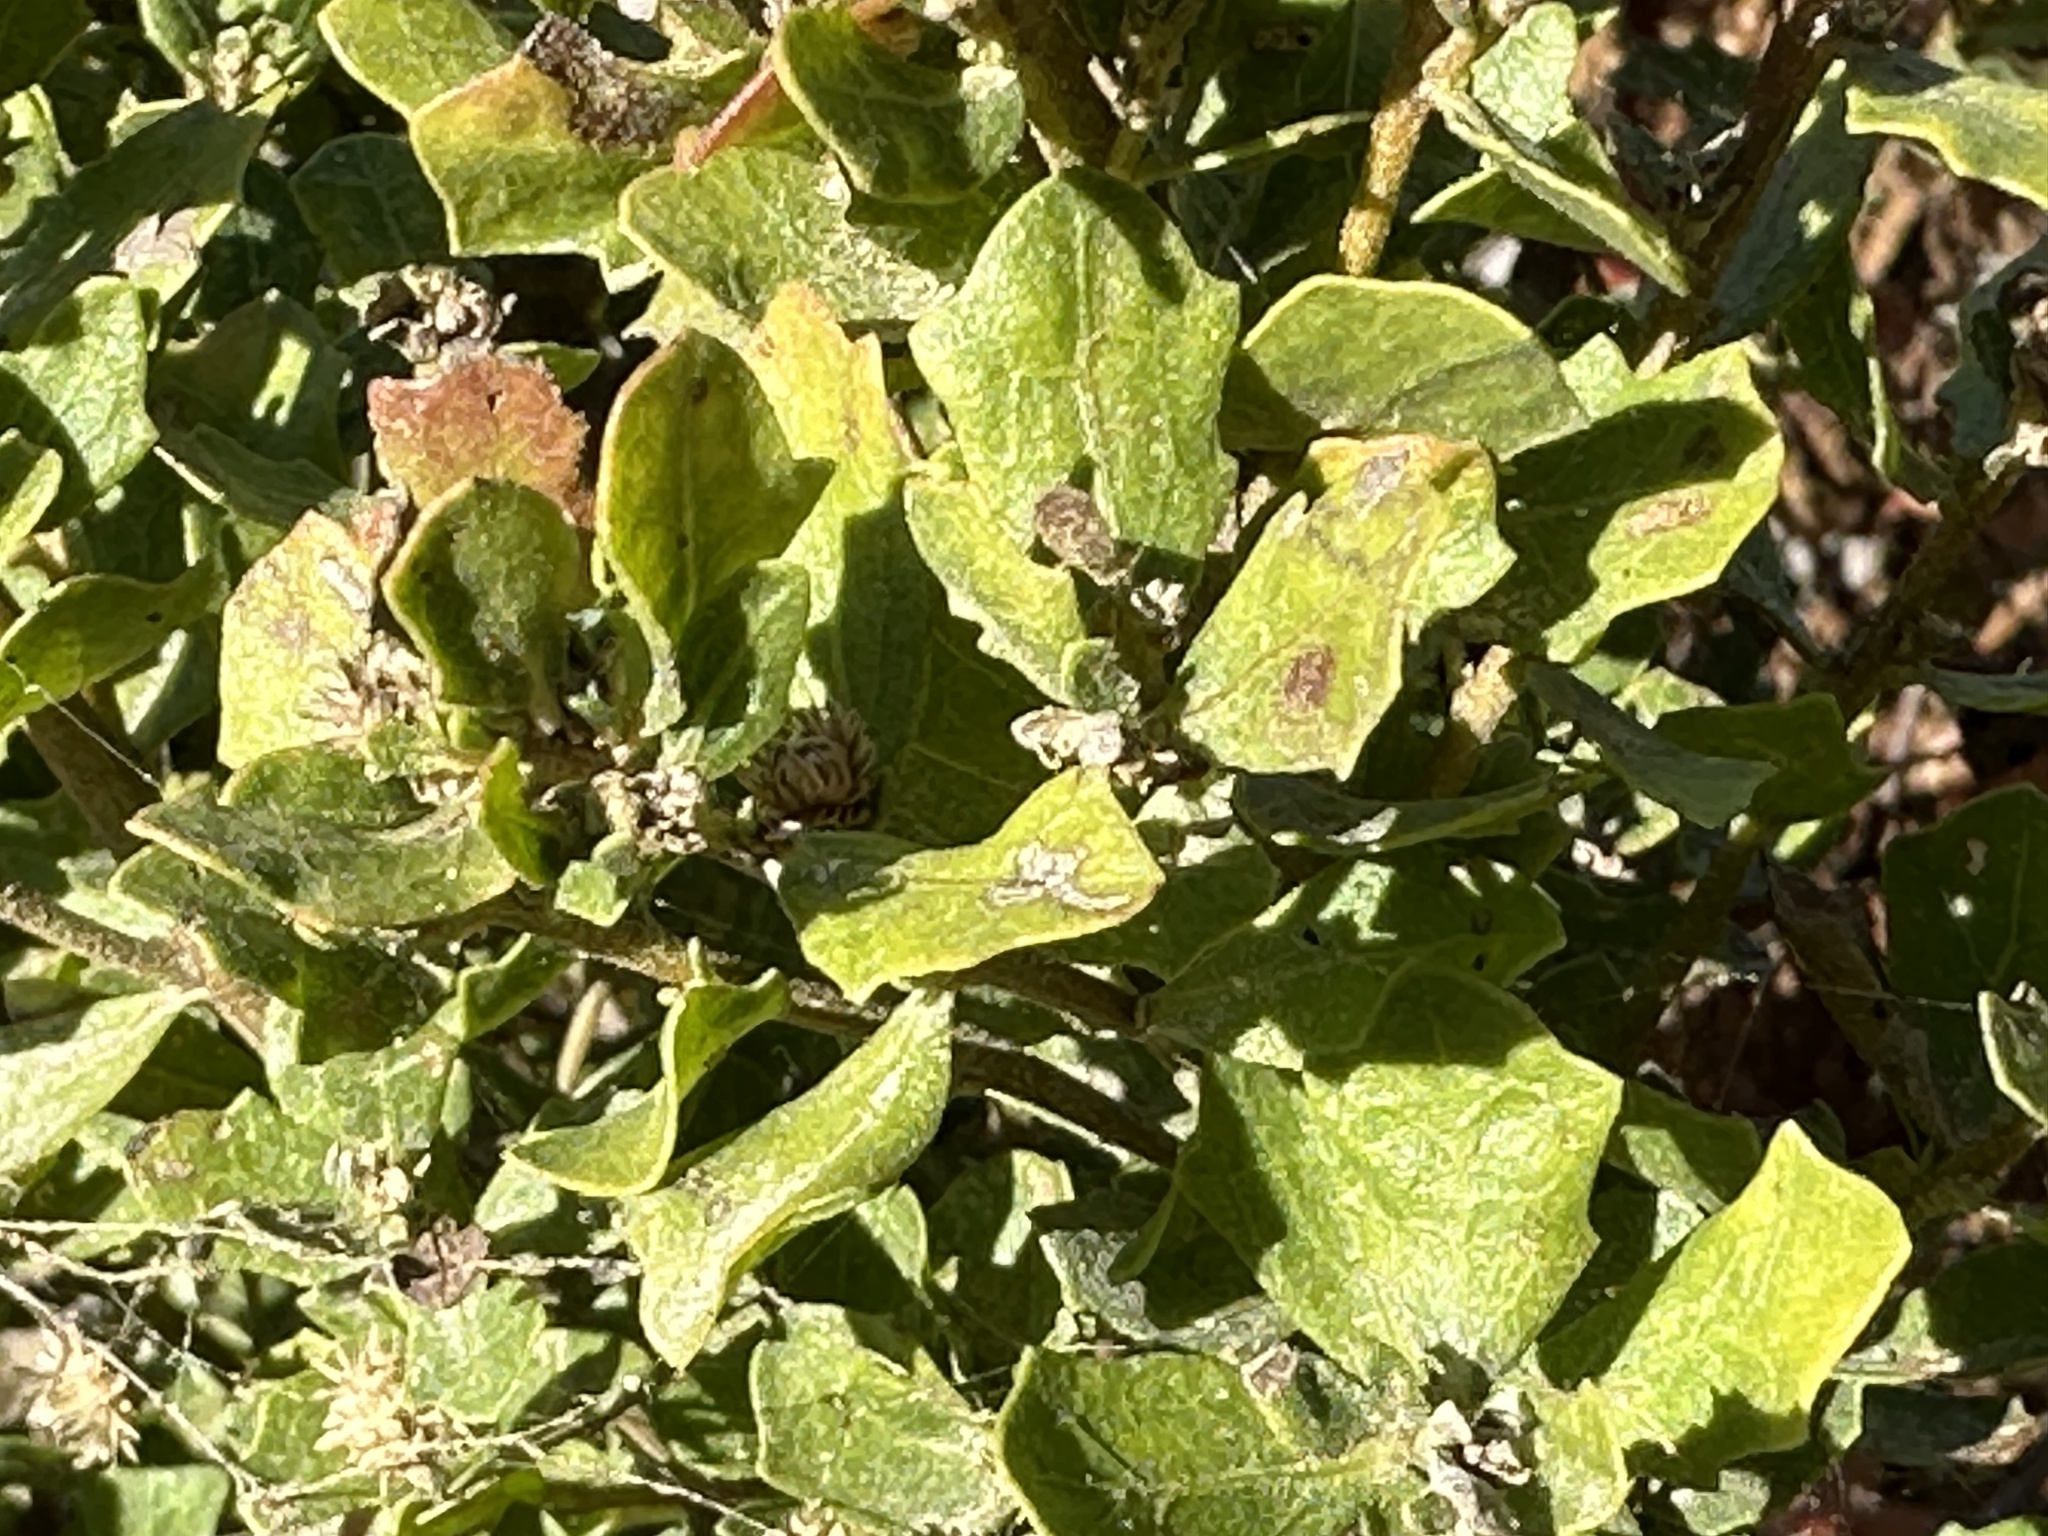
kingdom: Plantae
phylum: Tracheophyta
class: Magnoliopsida
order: Asterales
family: Asteraceae
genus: Baccharis
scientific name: Baccharis pilularis
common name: Coyotebrush
